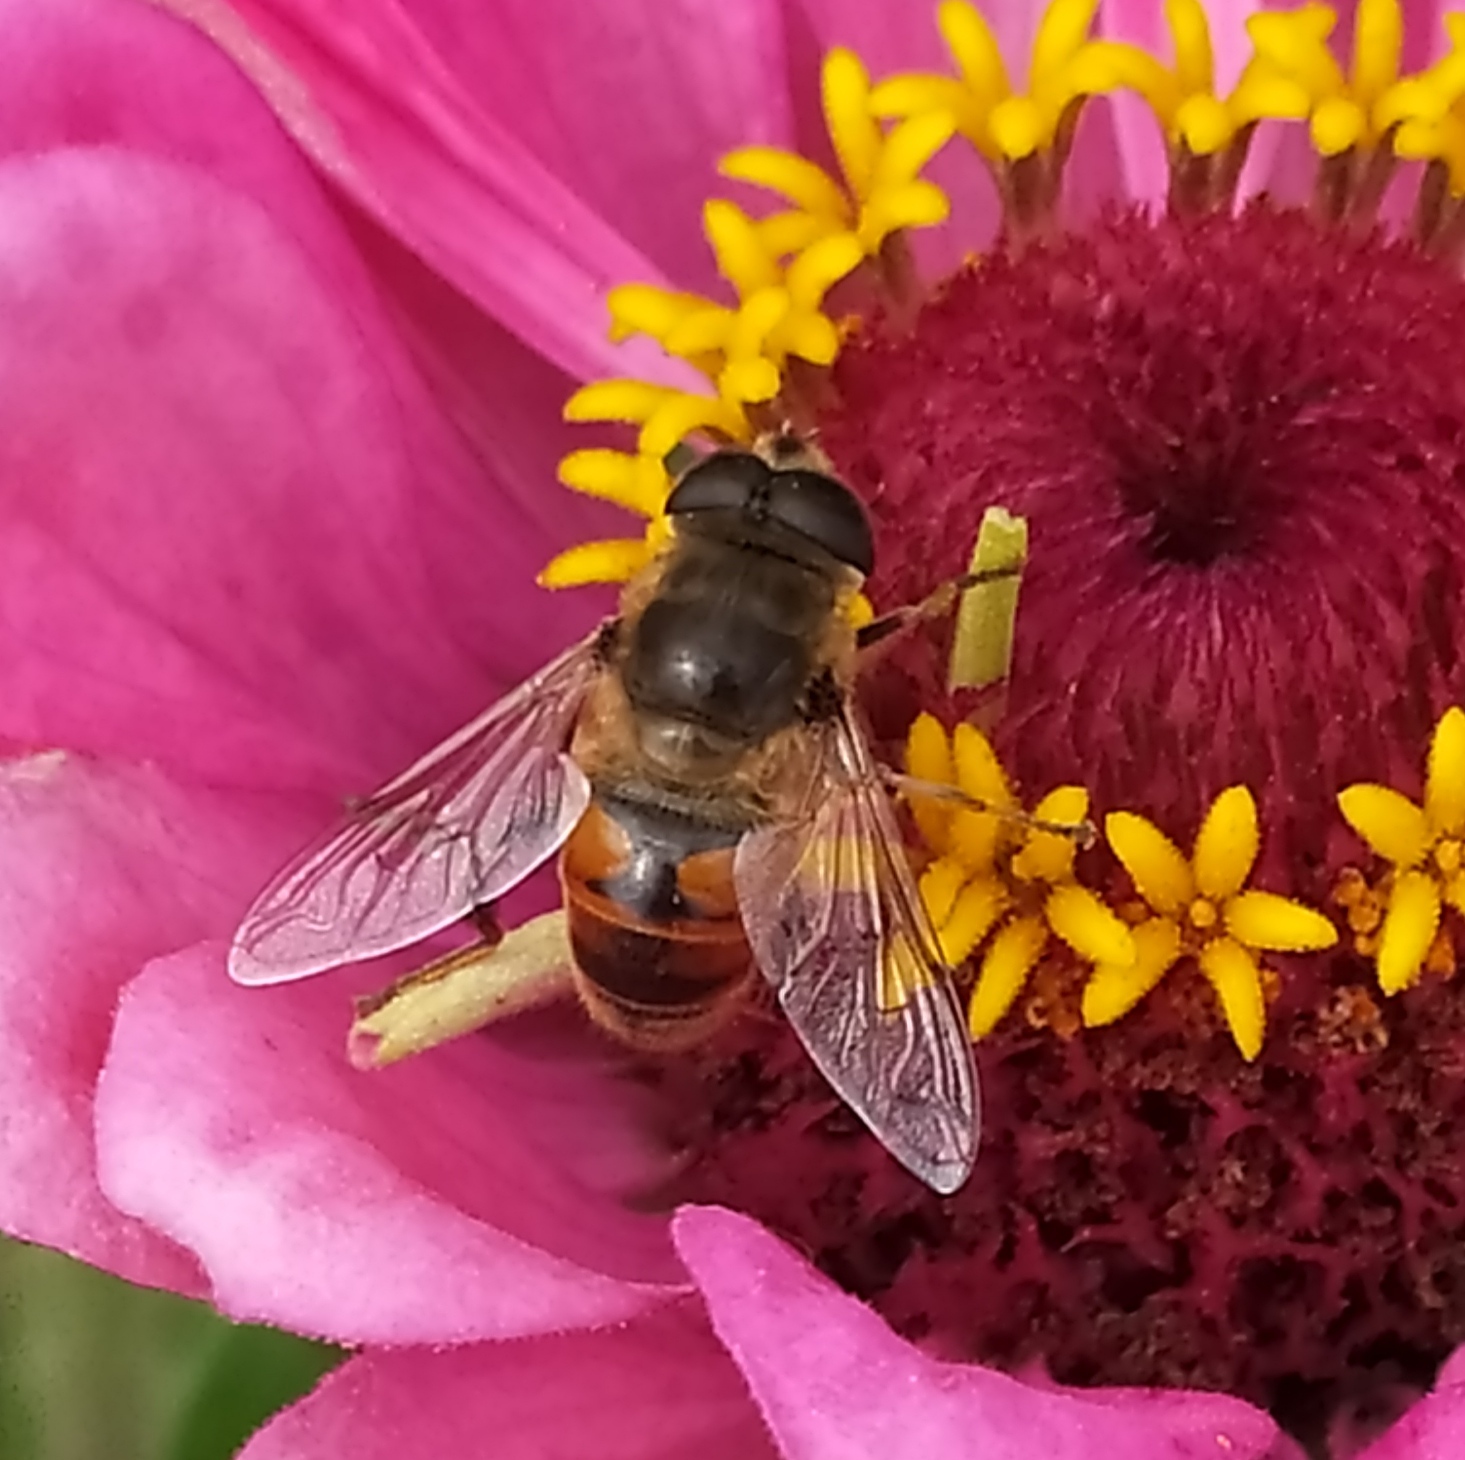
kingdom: Animalia
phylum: Arthropoda
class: Insecta
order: Diptera
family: Syrphidae
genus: Eristalis
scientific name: Eristalis tenax
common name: Drone fly
